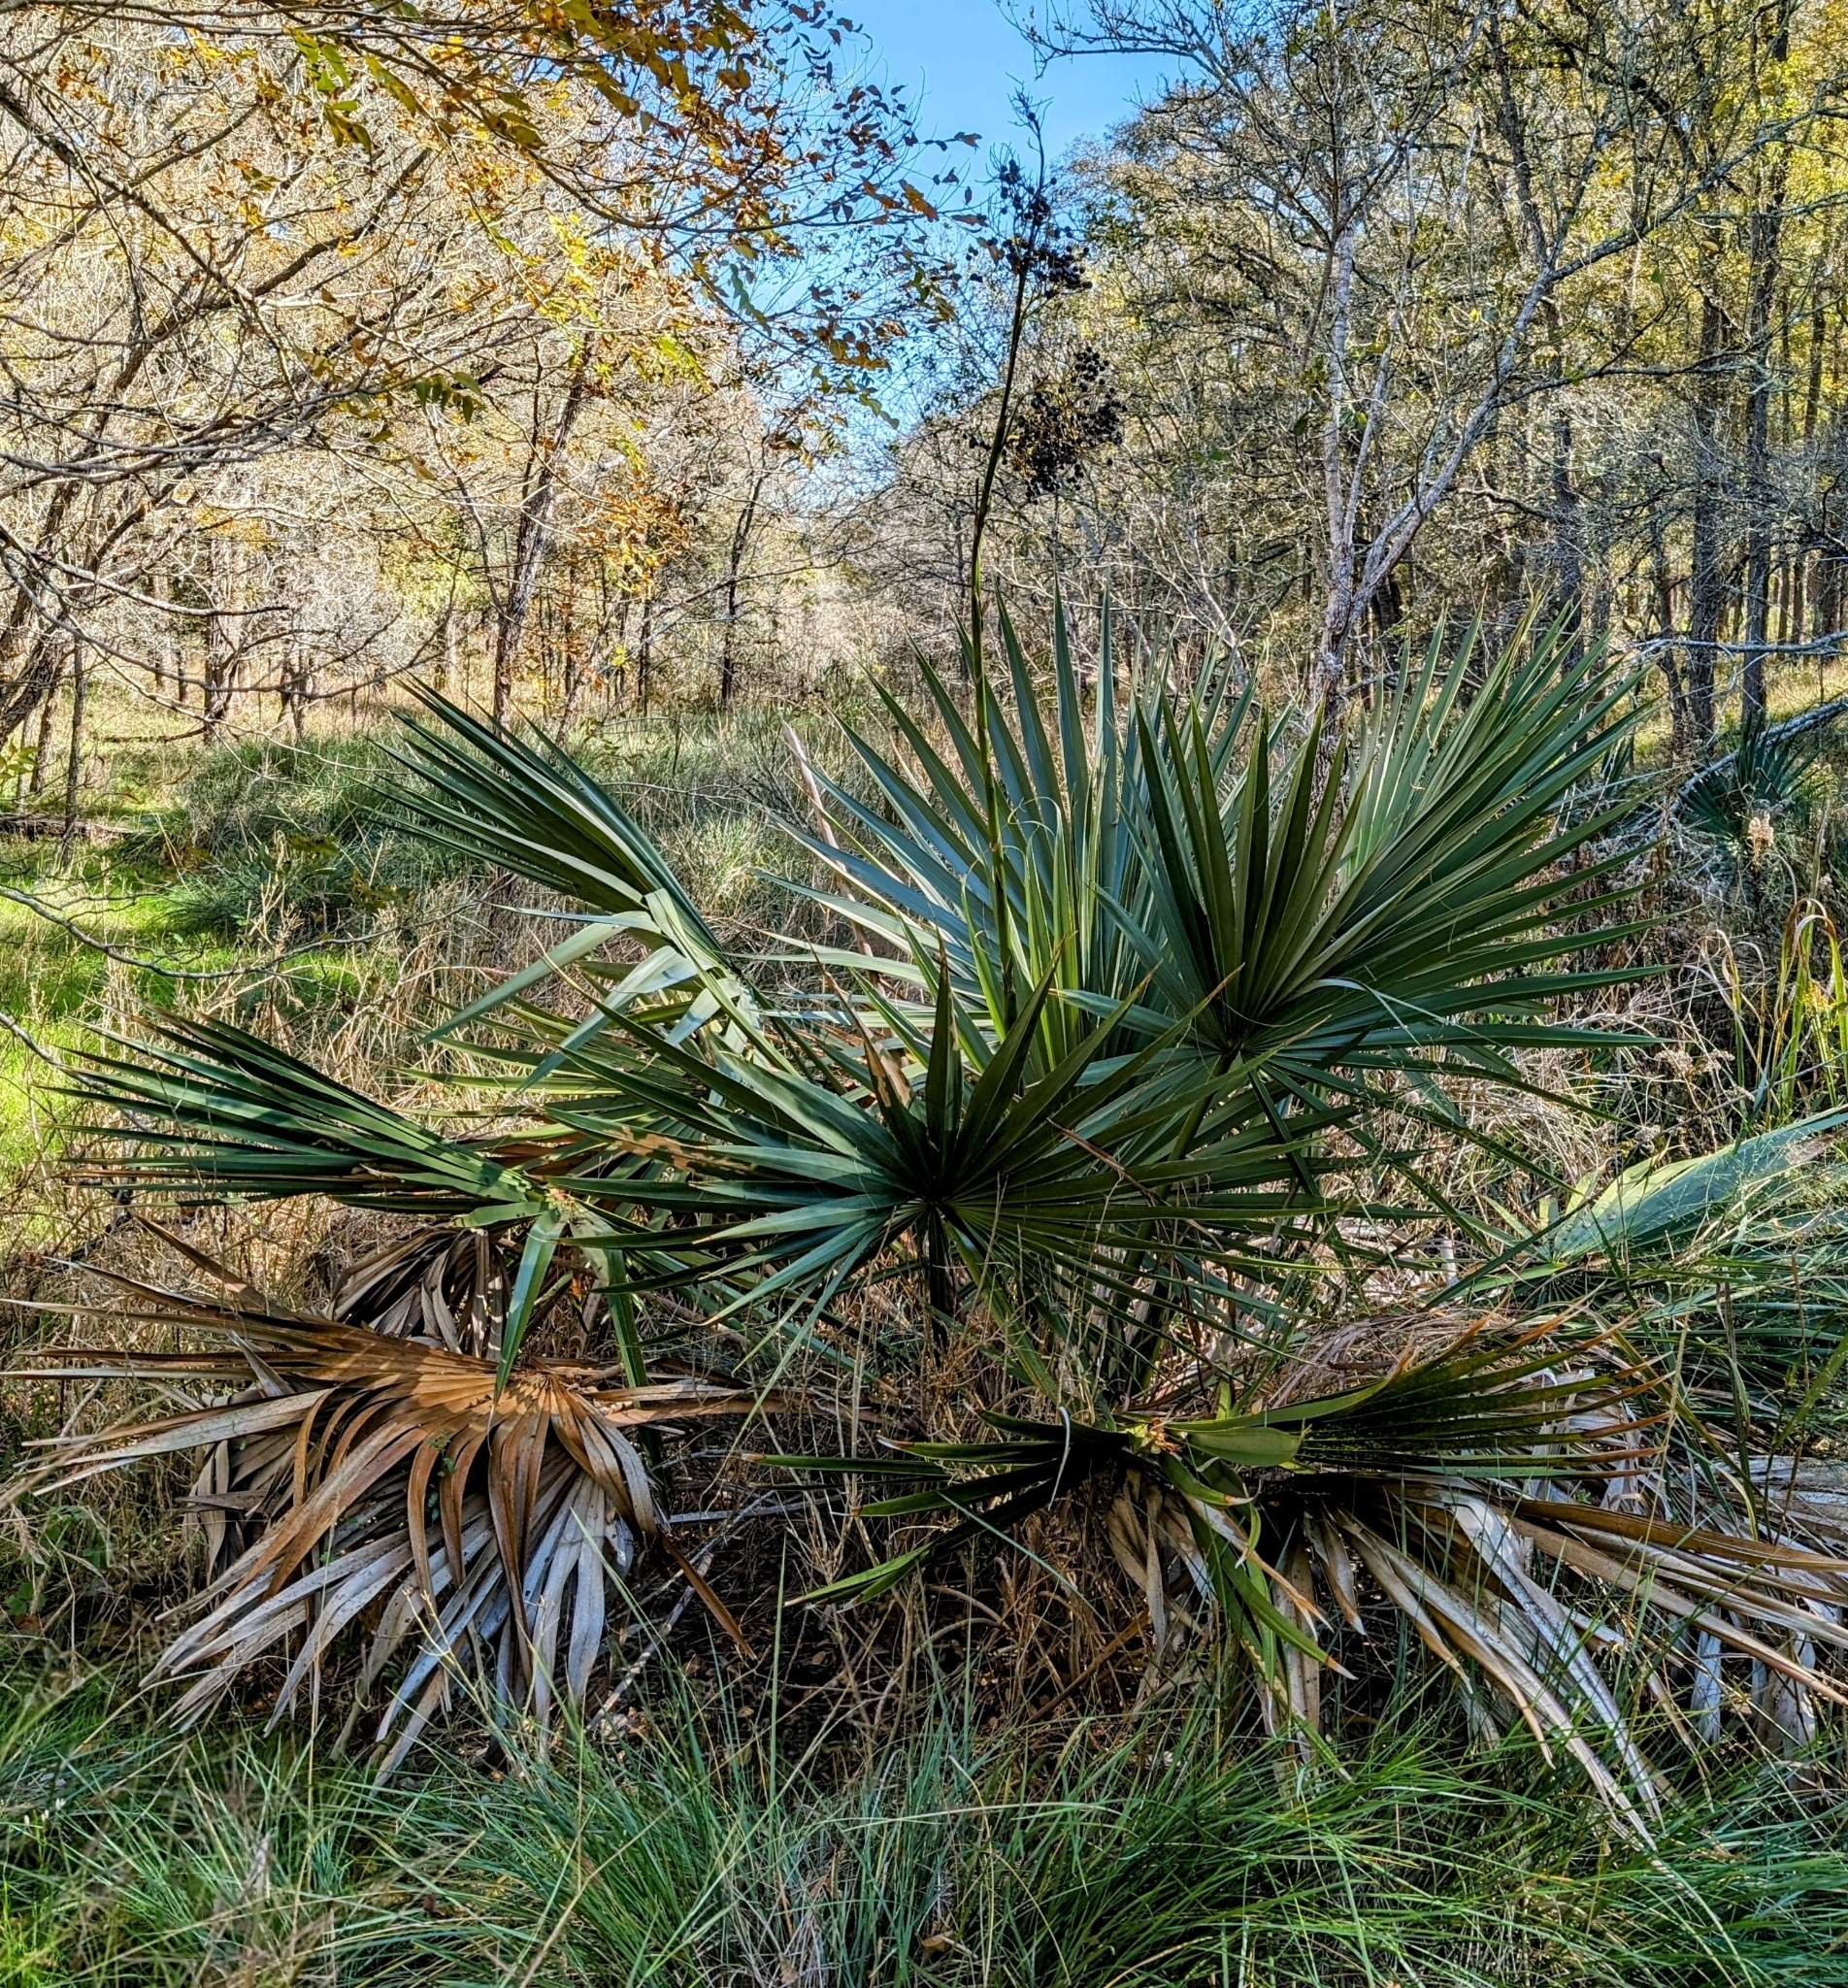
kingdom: Plantae
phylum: Tracheophyta
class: Liliopsida
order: Arecales
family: Arecaceae
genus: Sabal
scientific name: Sabal minor
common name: Dwarf palmetto
